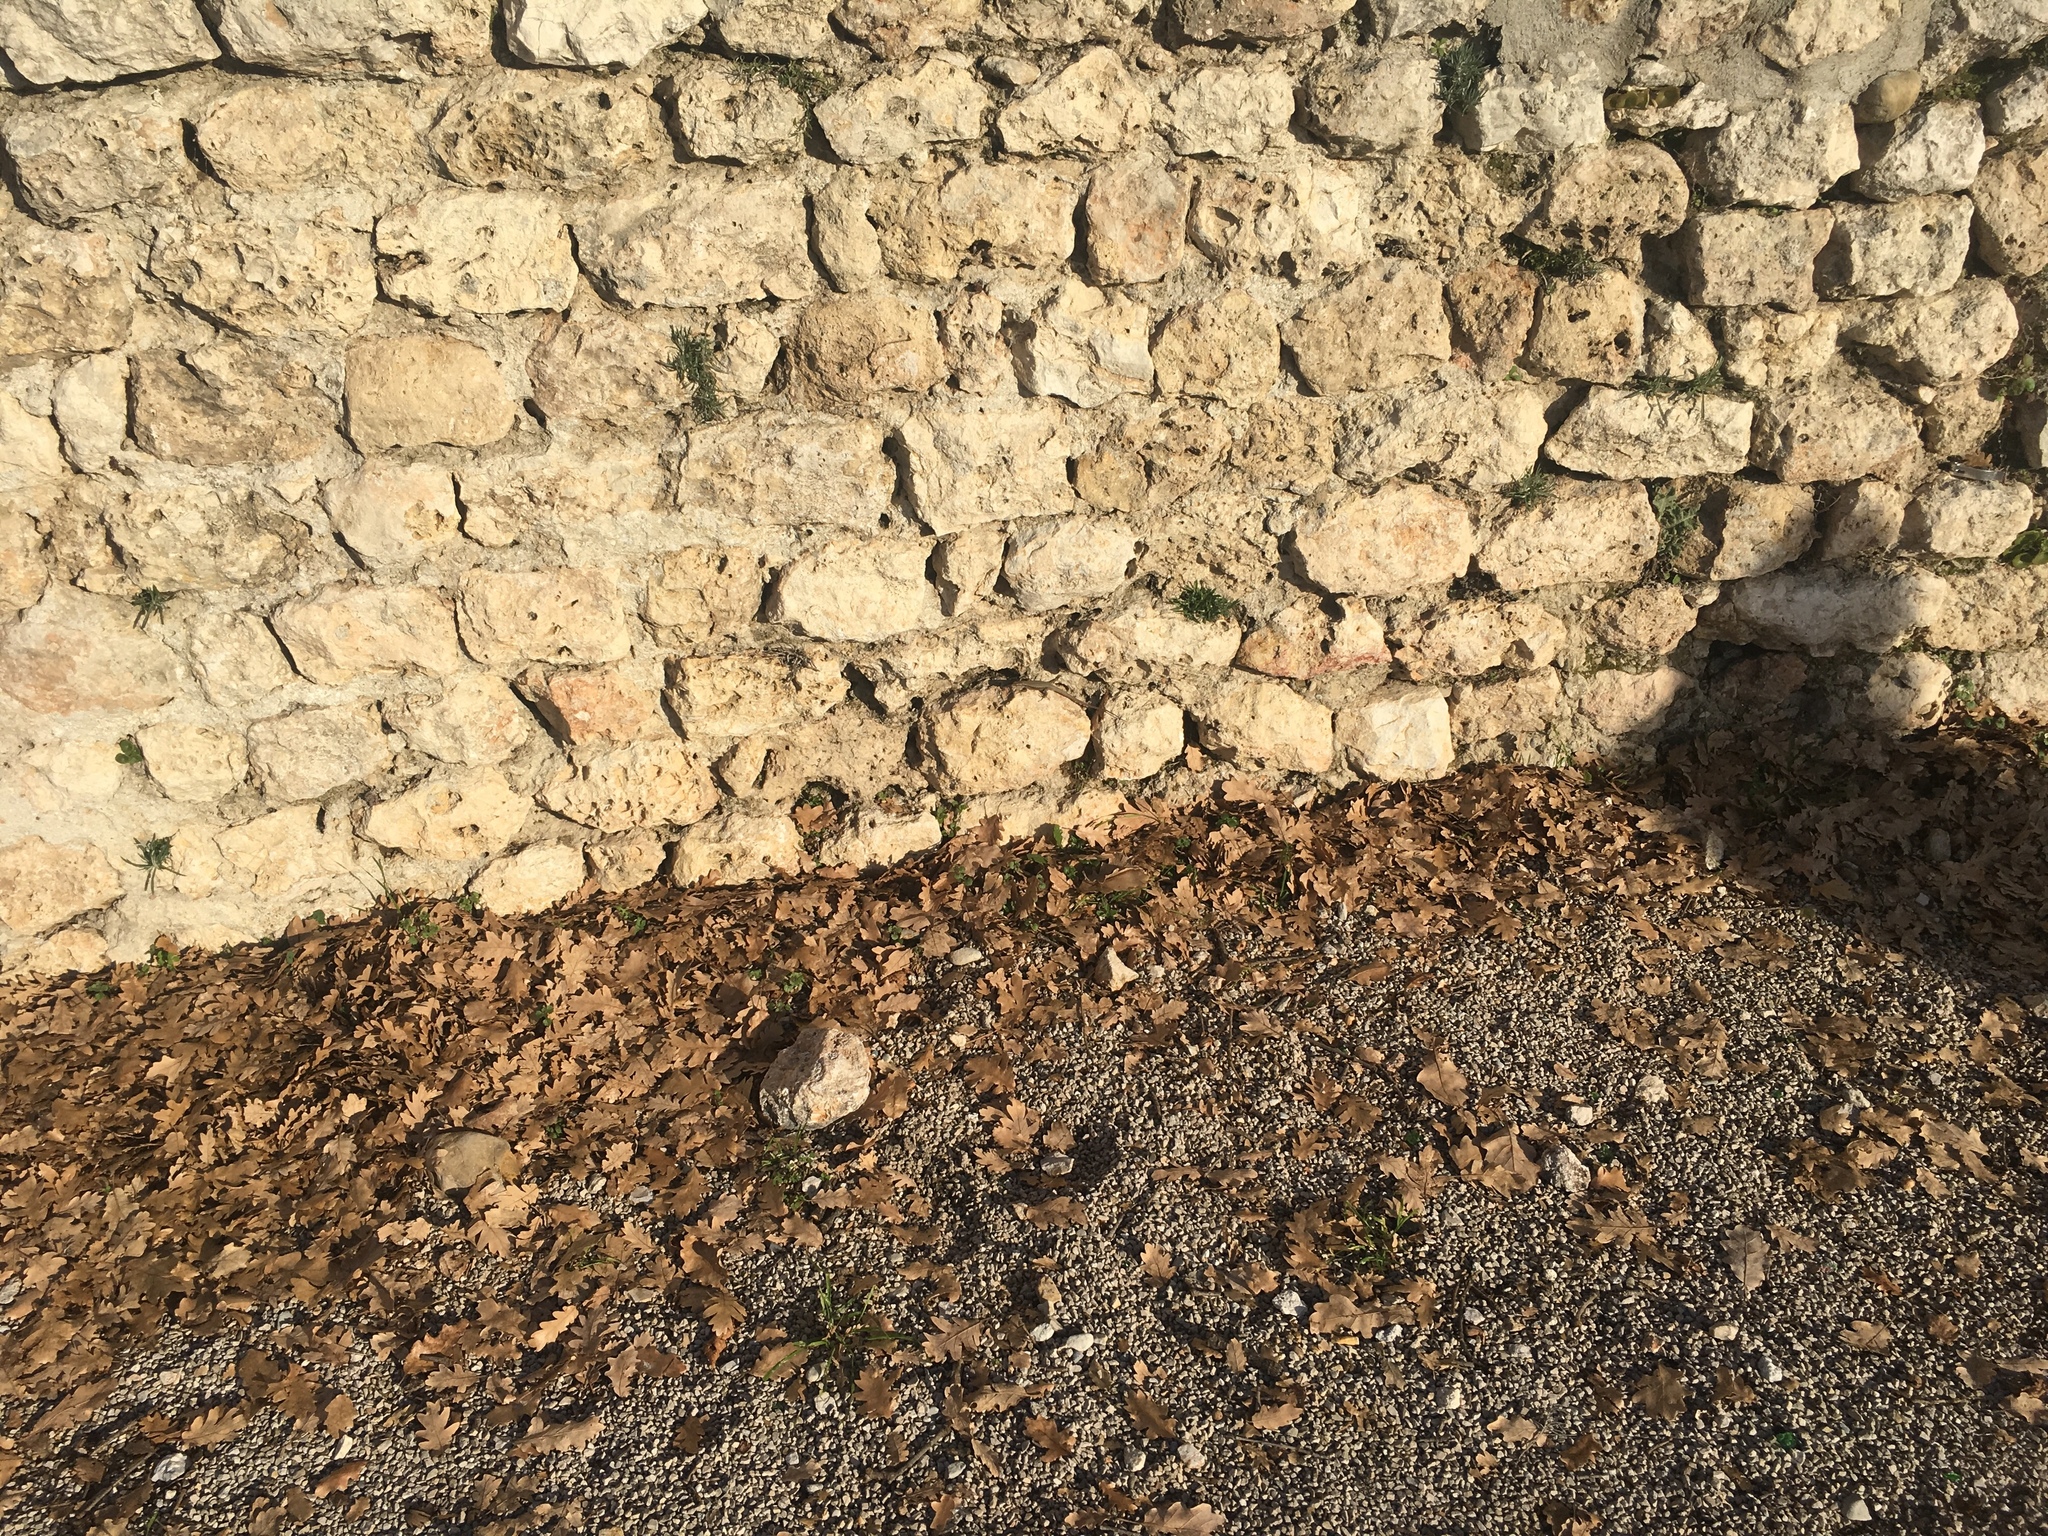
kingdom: Animalia
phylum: Chordata
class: Squamata
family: Lacertidae
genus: Podarcis
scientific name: Podarcis muralis
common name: Common wall lizard
